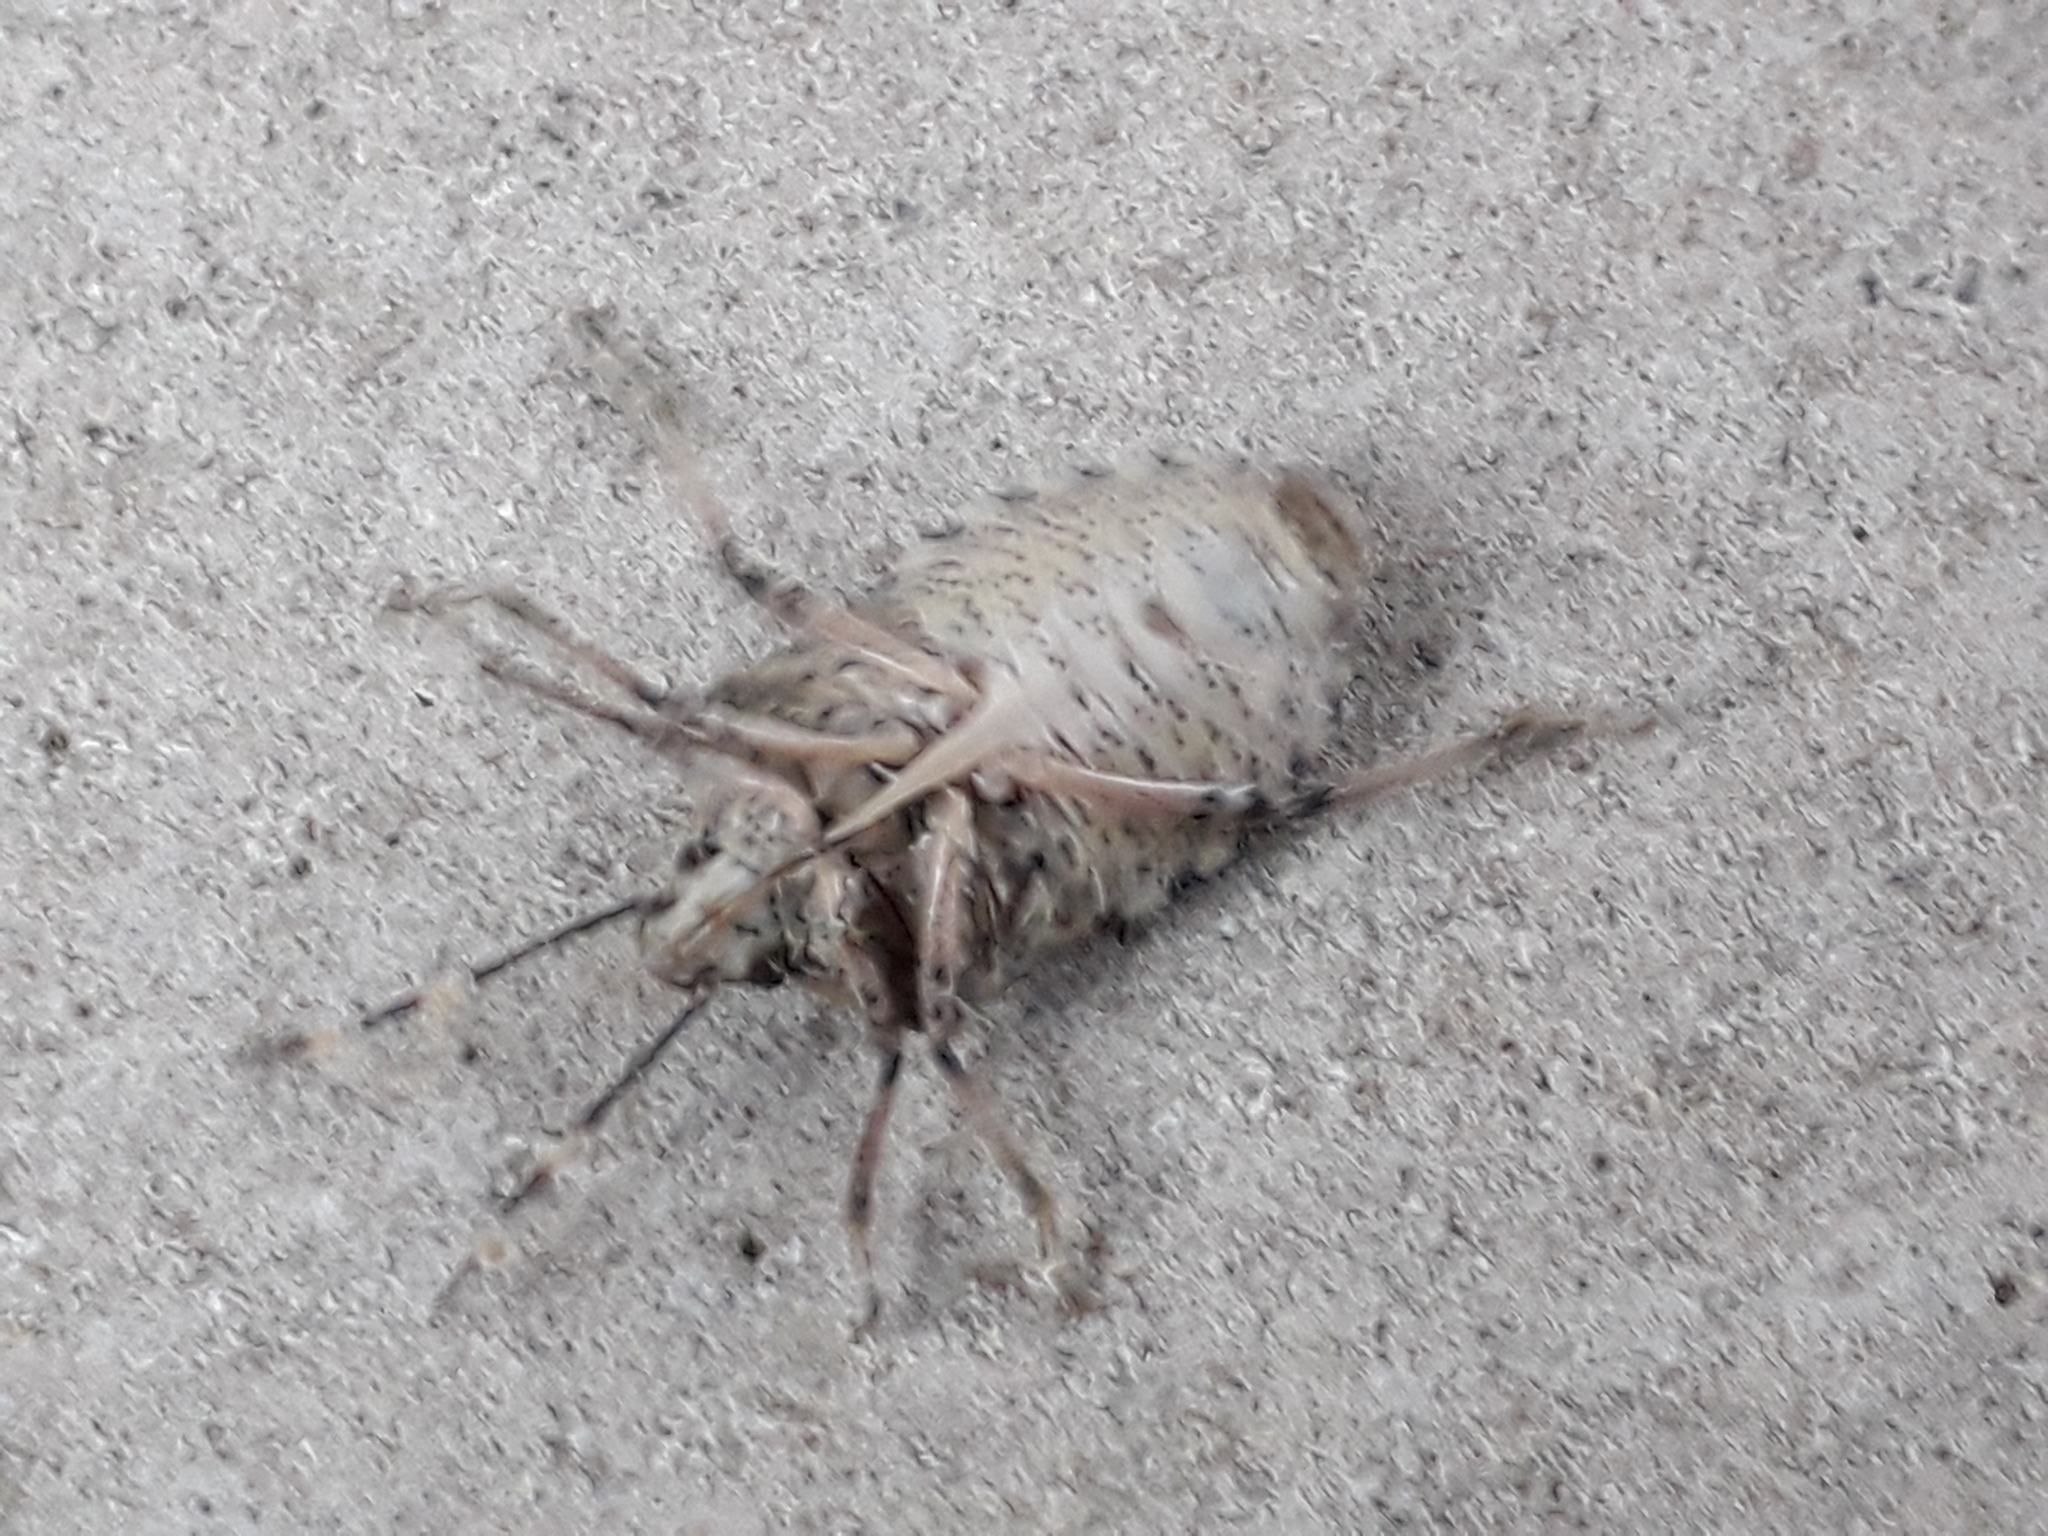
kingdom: Animalia
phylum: Arthropoda
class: Insecta
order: Hemiptera
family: Pentatomidae
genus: Rhaphigaster
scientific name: Rhaphigaster nebulosa
